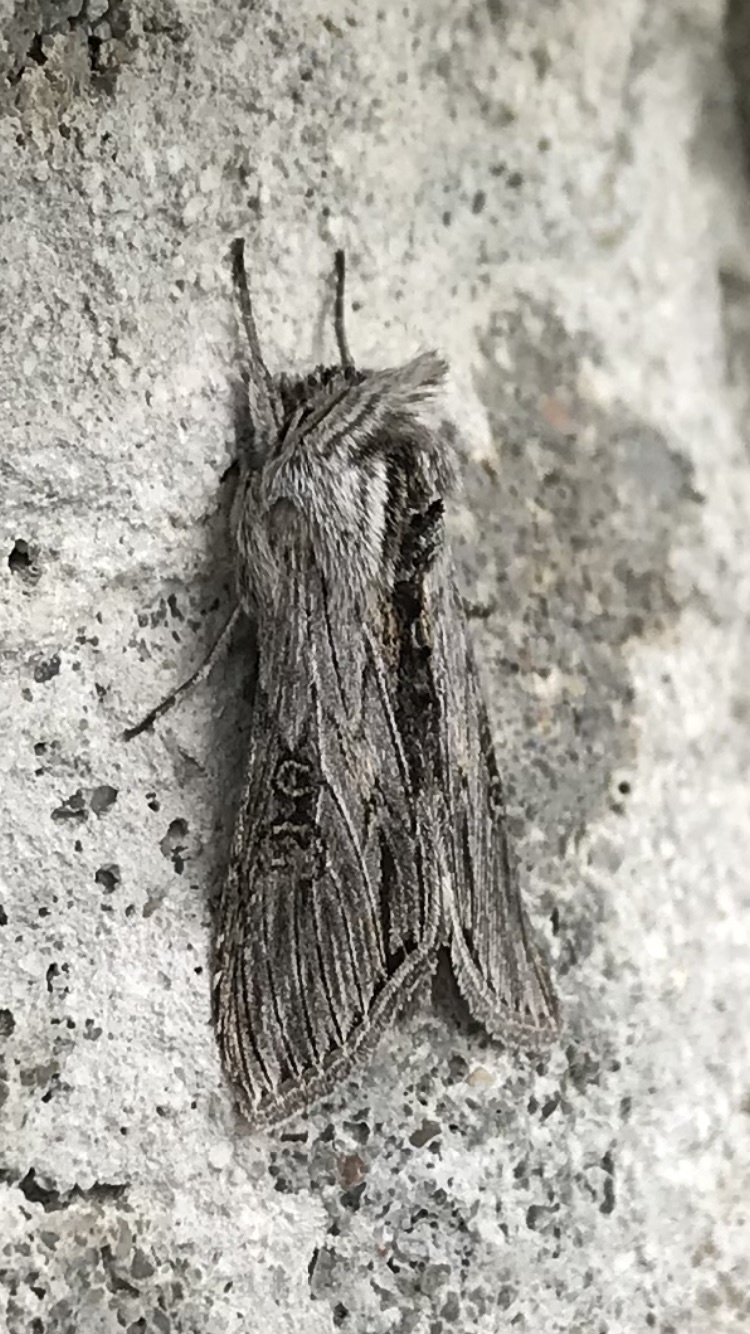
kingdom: Animalia
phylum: Arthropoda
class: Insecta
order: Lepidoptera
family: Noctuidae
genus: Cucullia
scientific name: Cucullia antipoda
